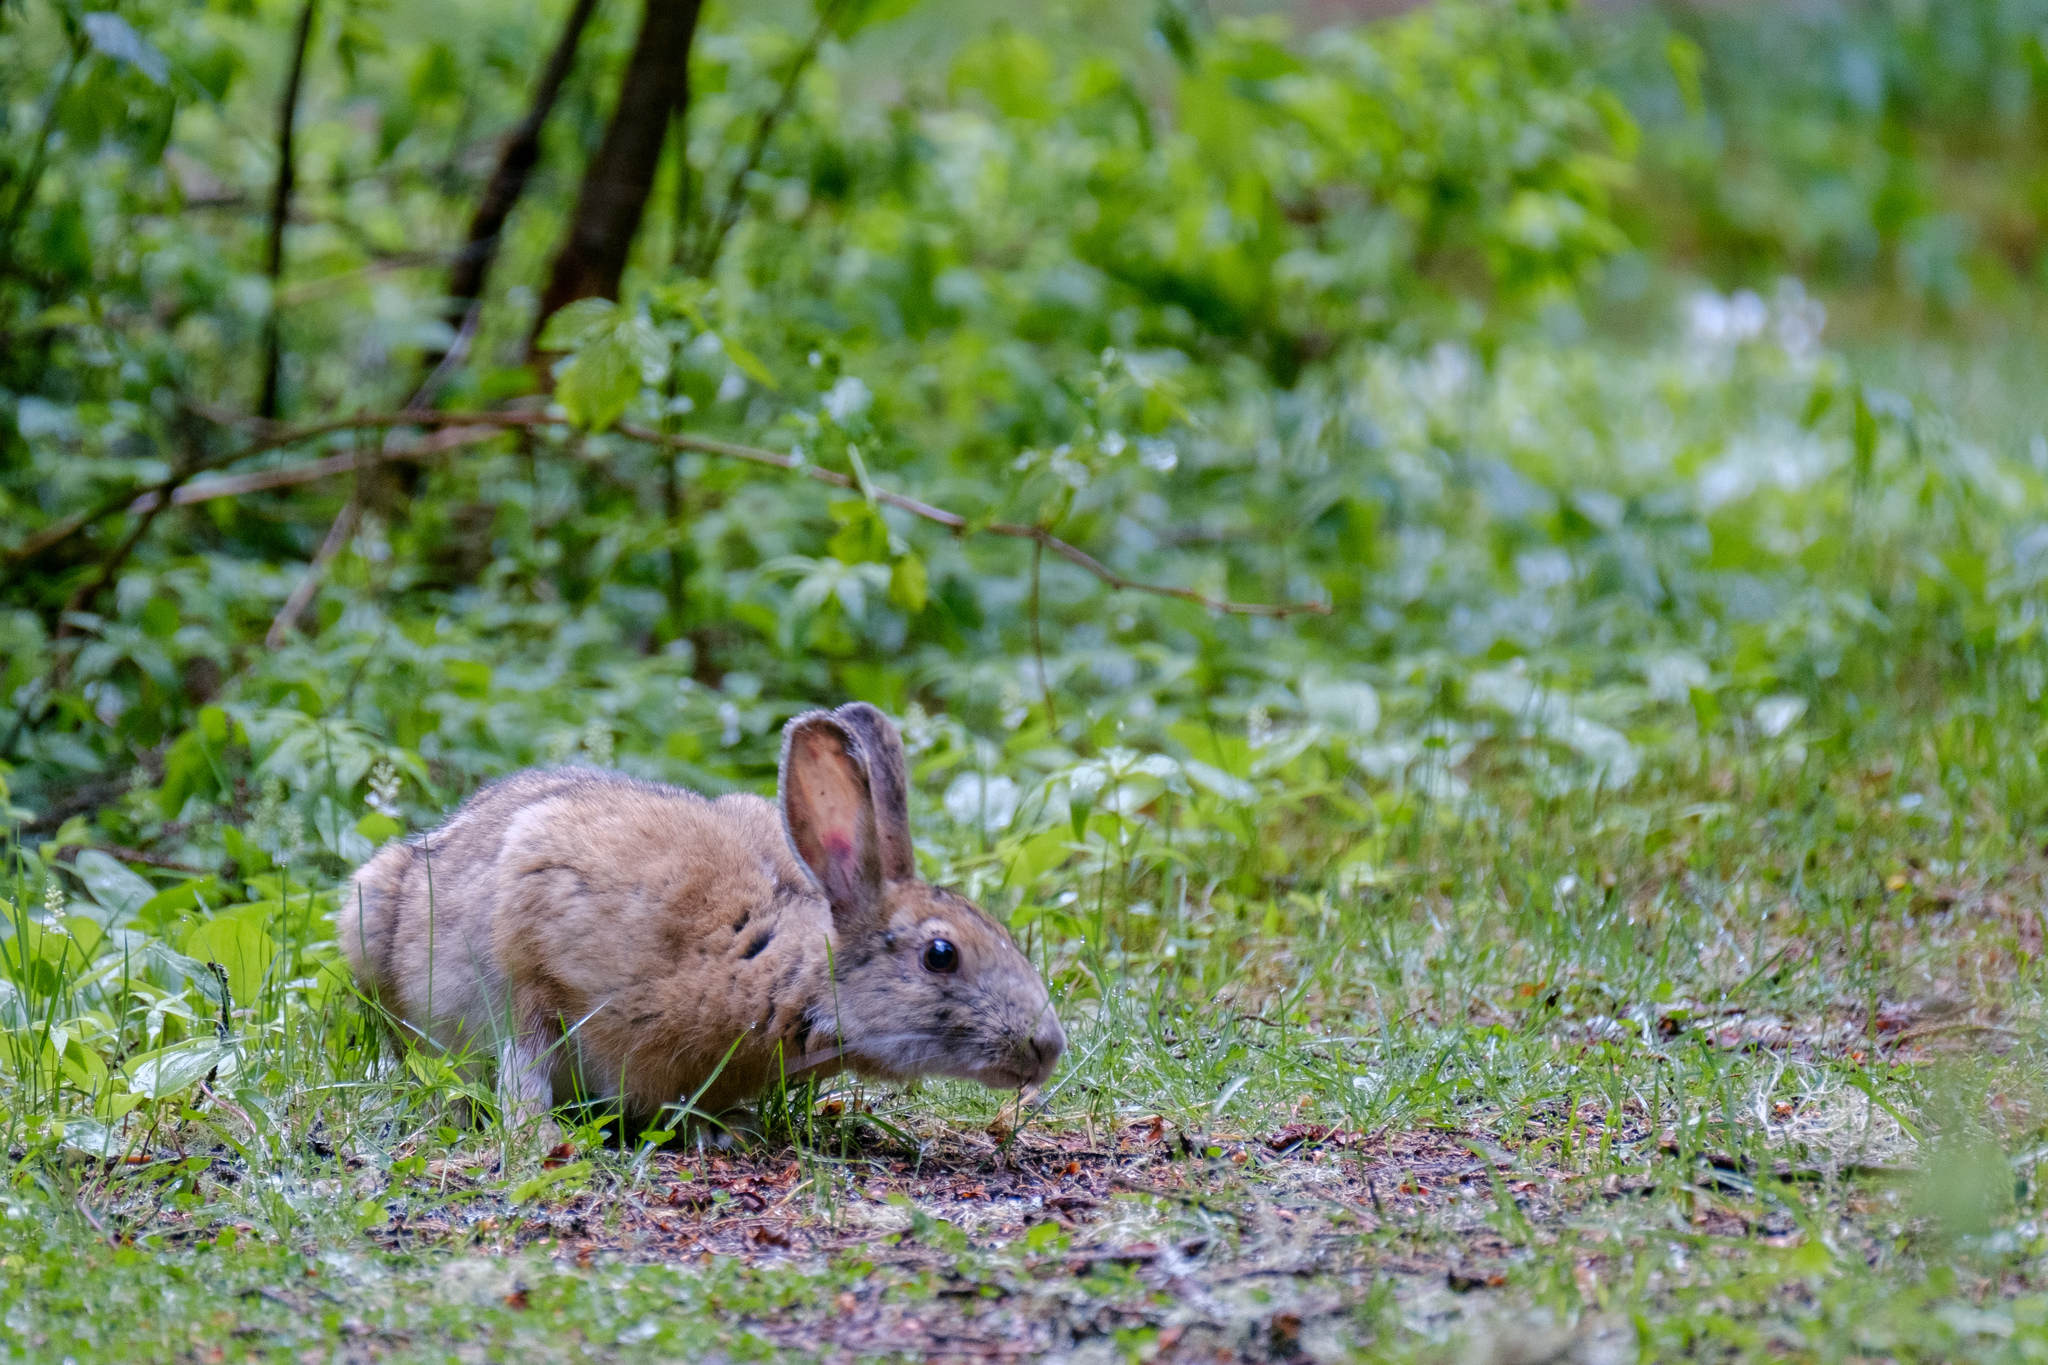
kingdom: Animalia
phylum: Chordata
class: Mammalia
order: Lagomorpha
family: Leporidae
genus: Lepus
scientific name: Lepus americanus
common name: Snowshoe hare
